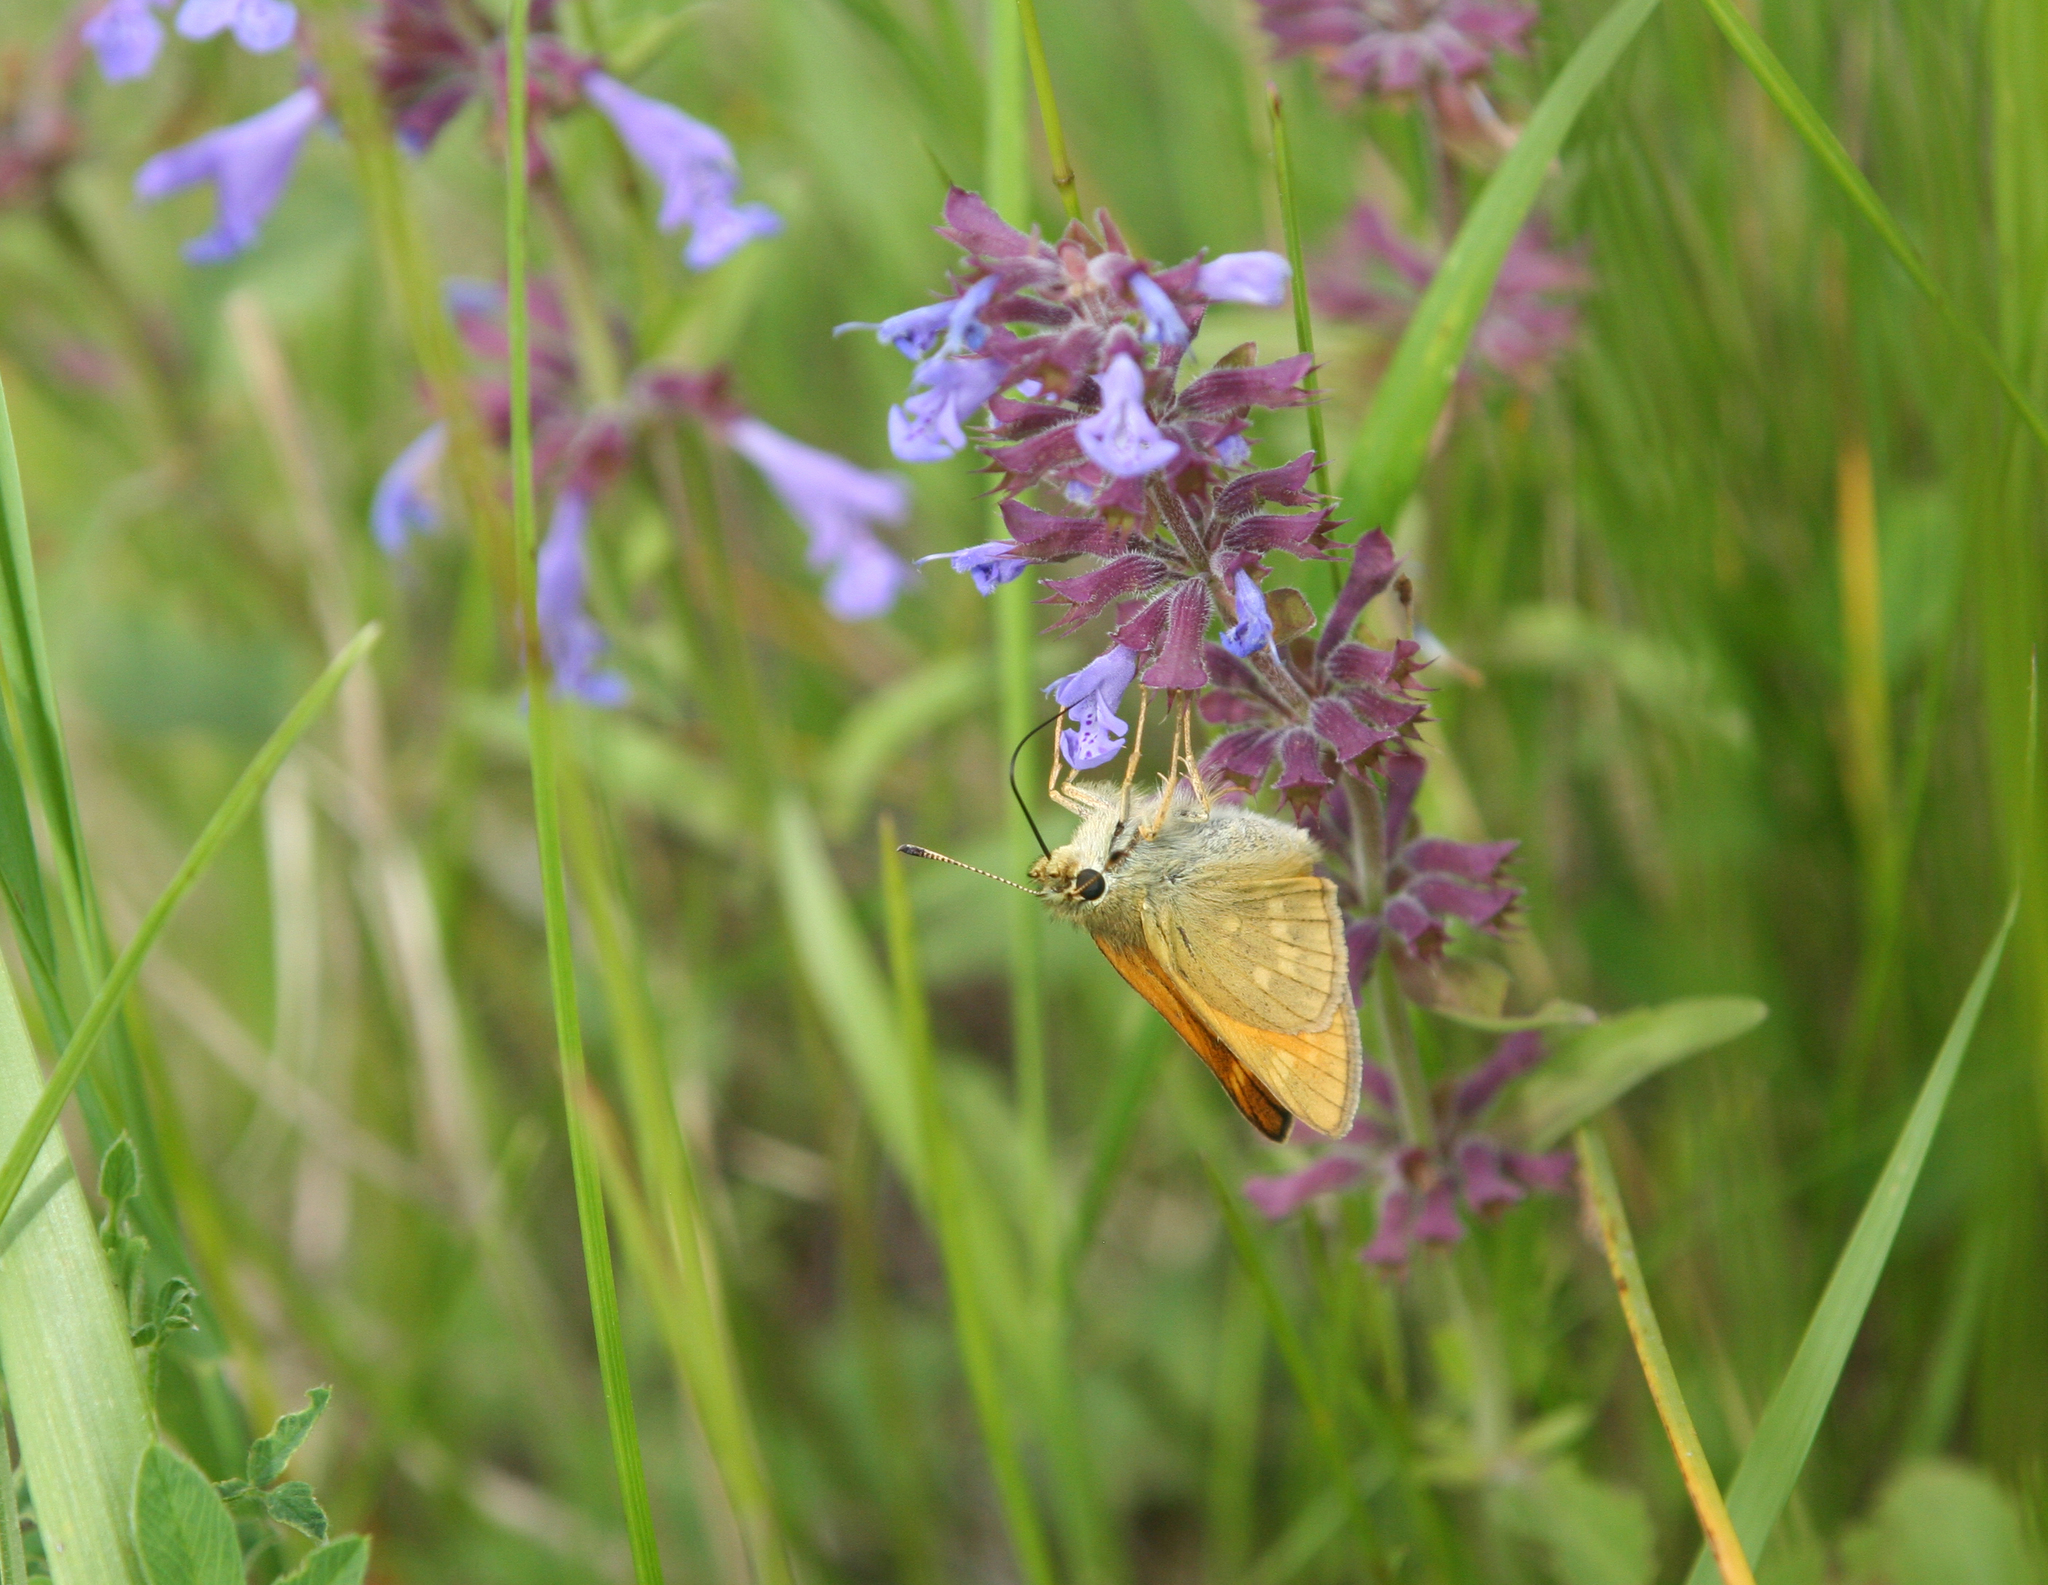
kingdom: Plantae
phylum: Tracheophyta
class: Magnoliopsida
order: Lamiales
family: Lamiaceae
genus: Dracocephalum
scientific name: Dracocephalum nutans
